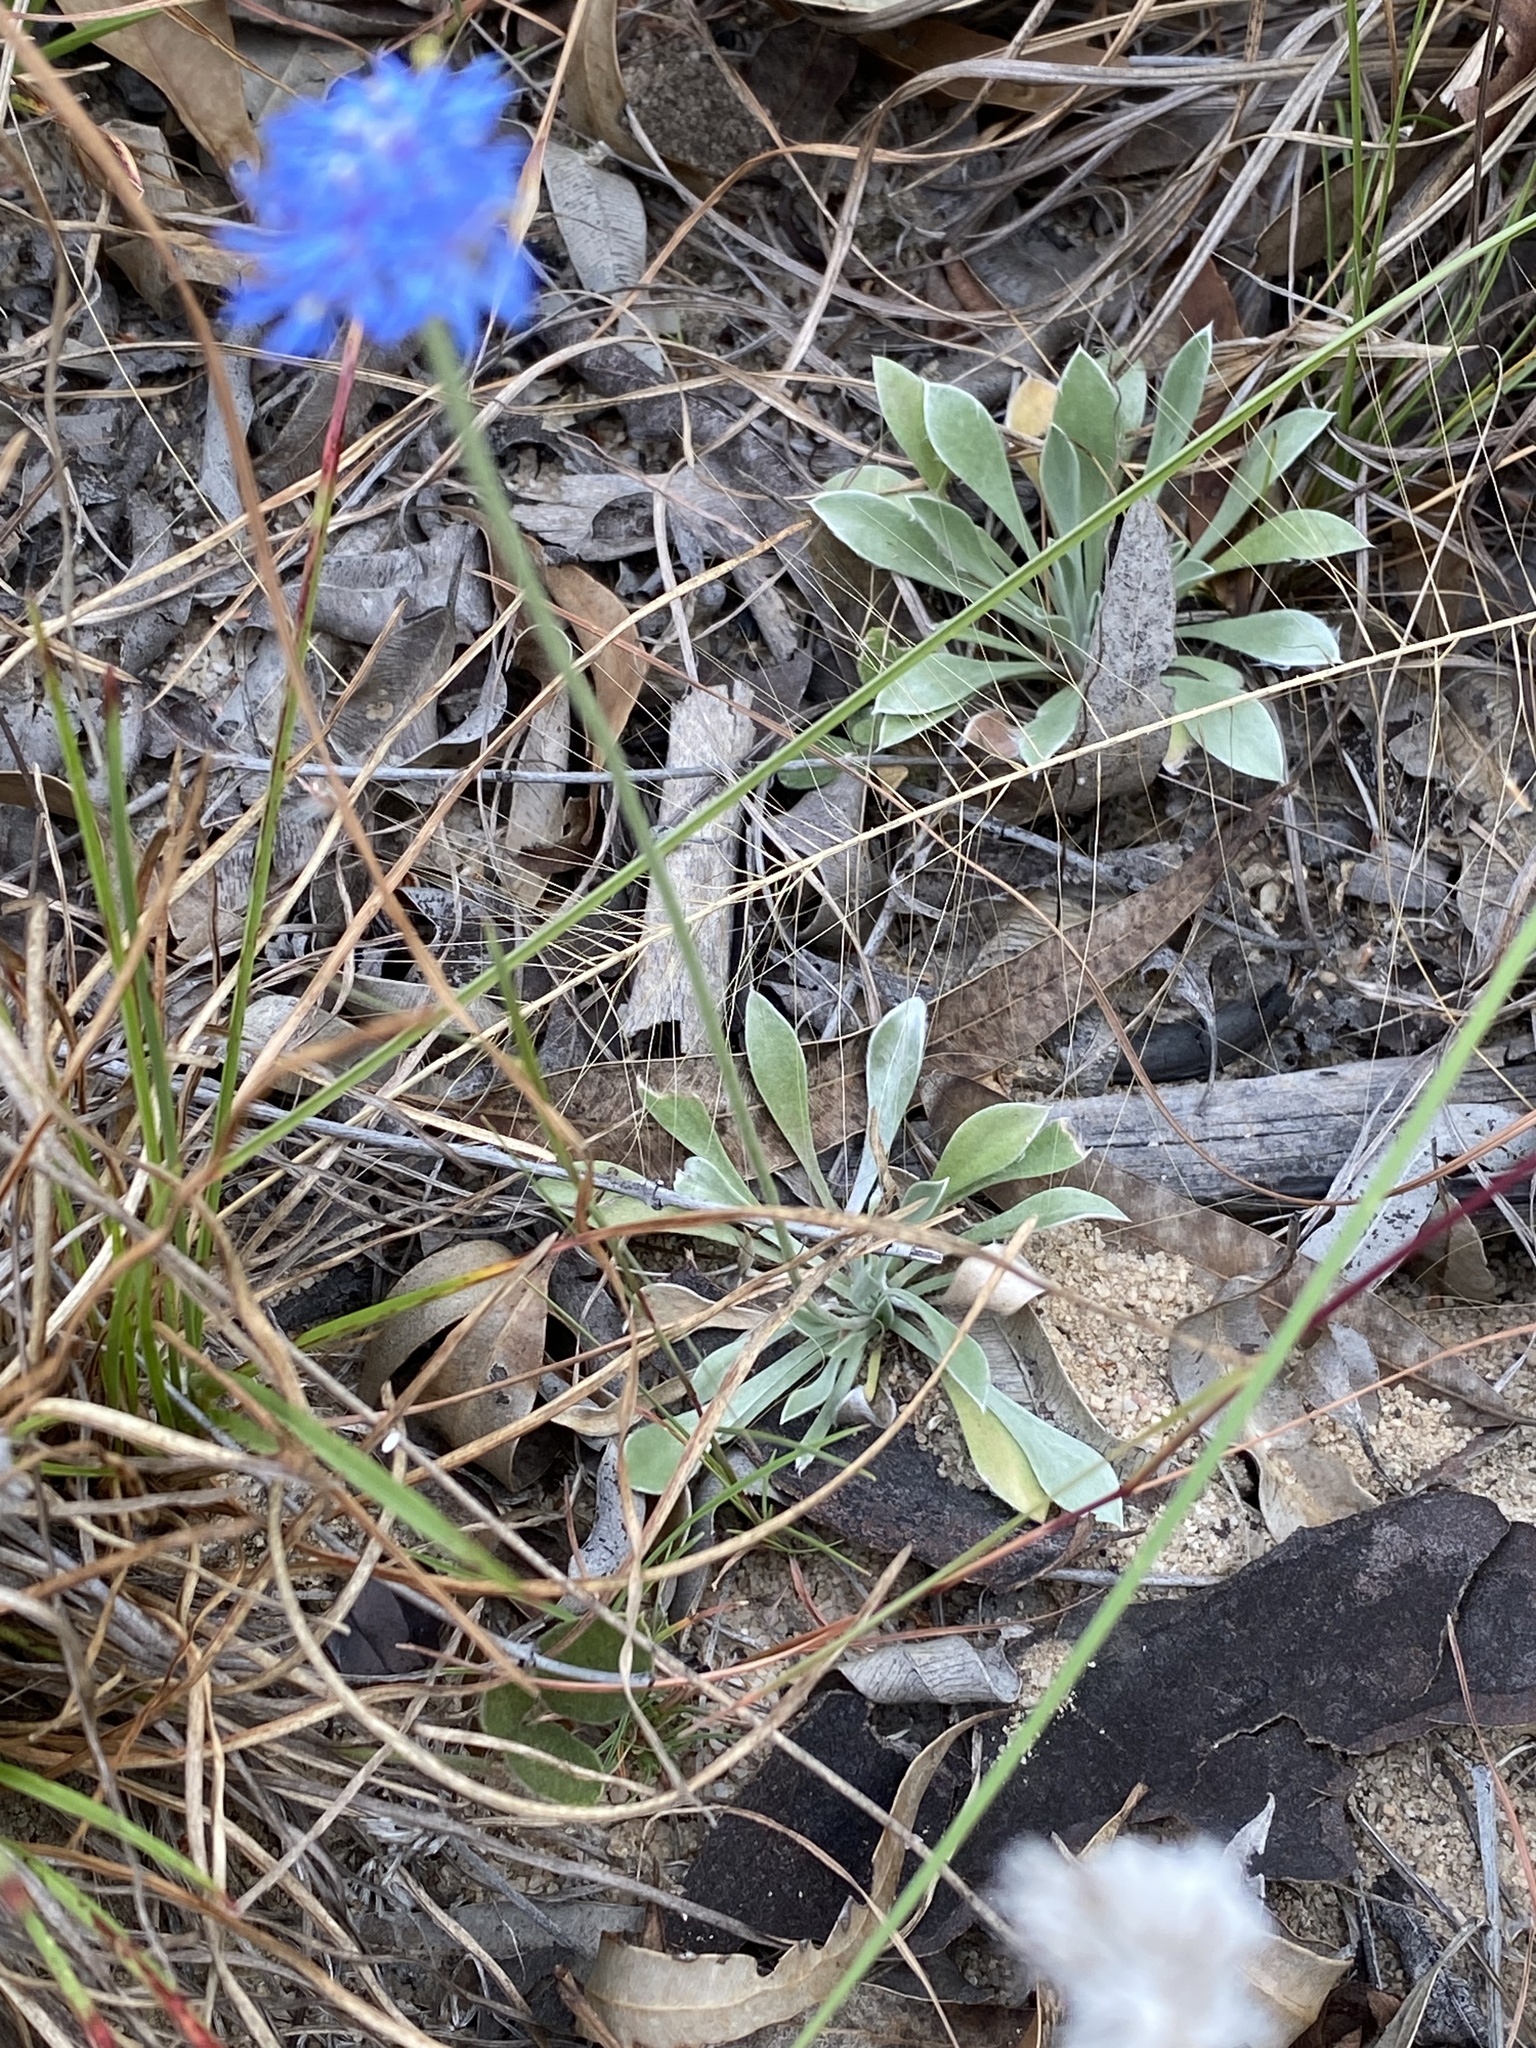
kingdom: Plantae
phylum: Tracheophyta
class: Magnoliopsida
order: Asterales
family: Goodeniaceae
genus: Brunonia
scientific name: Brunonia australis
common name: Blue pincushion
